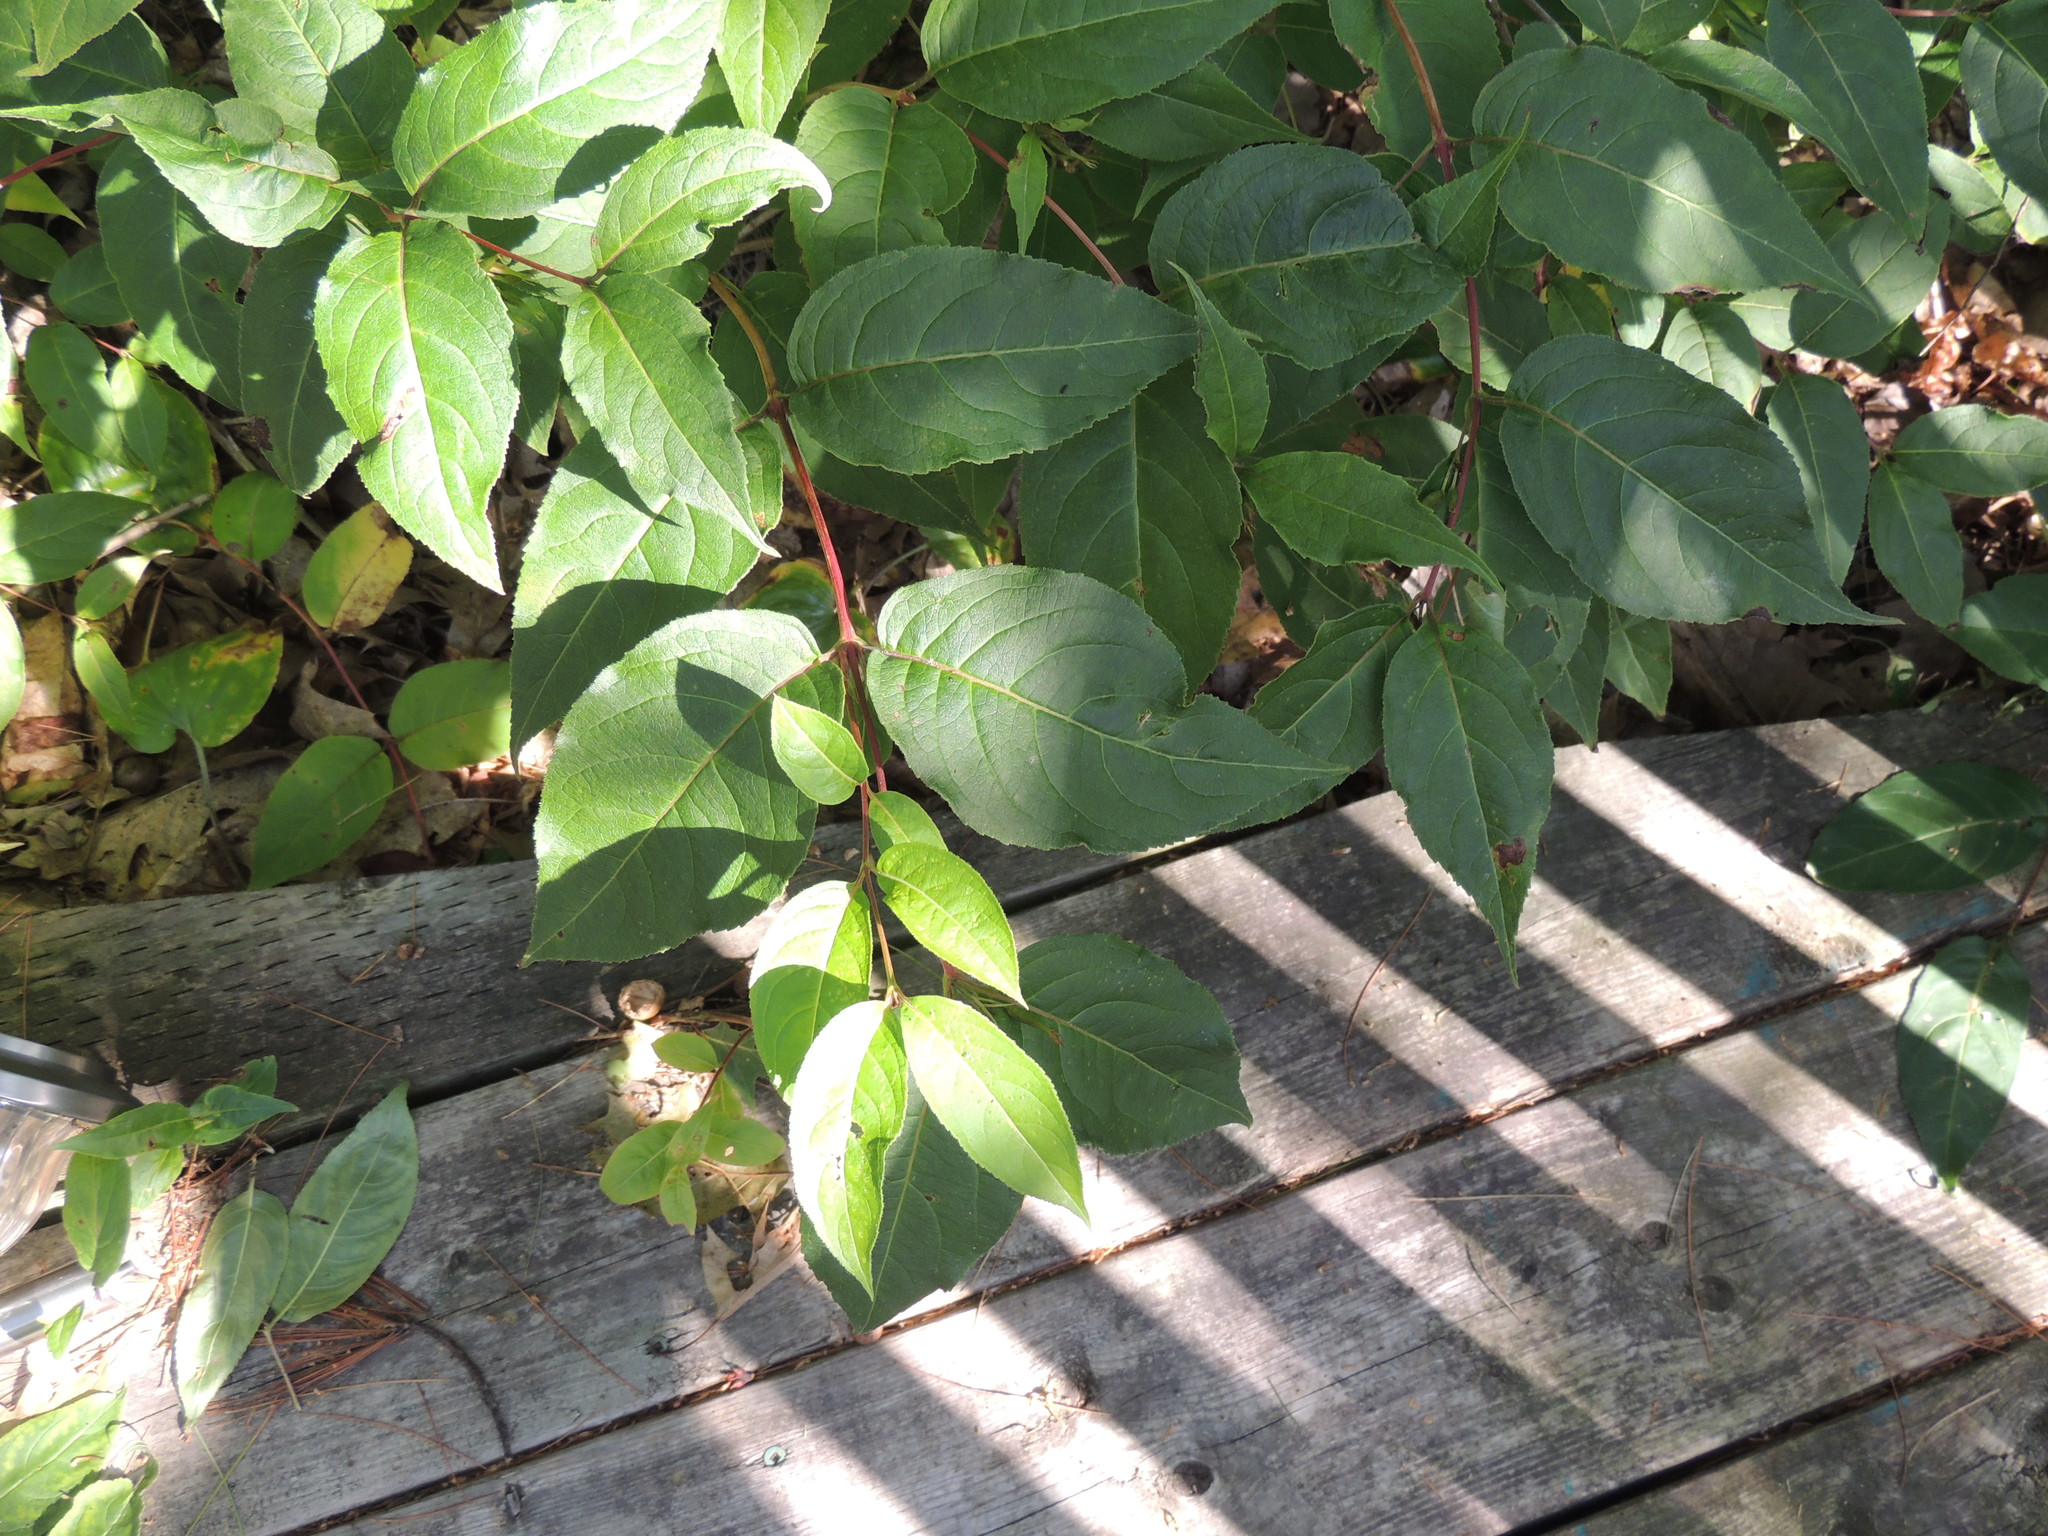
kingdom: Plantae
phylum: Tracheophyta
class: Magnoliopsida
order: Dipsacales
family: Caprifoliaceae
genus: Diervilla
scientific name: Diervilla lonicera
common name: Bush-honeysuckle
